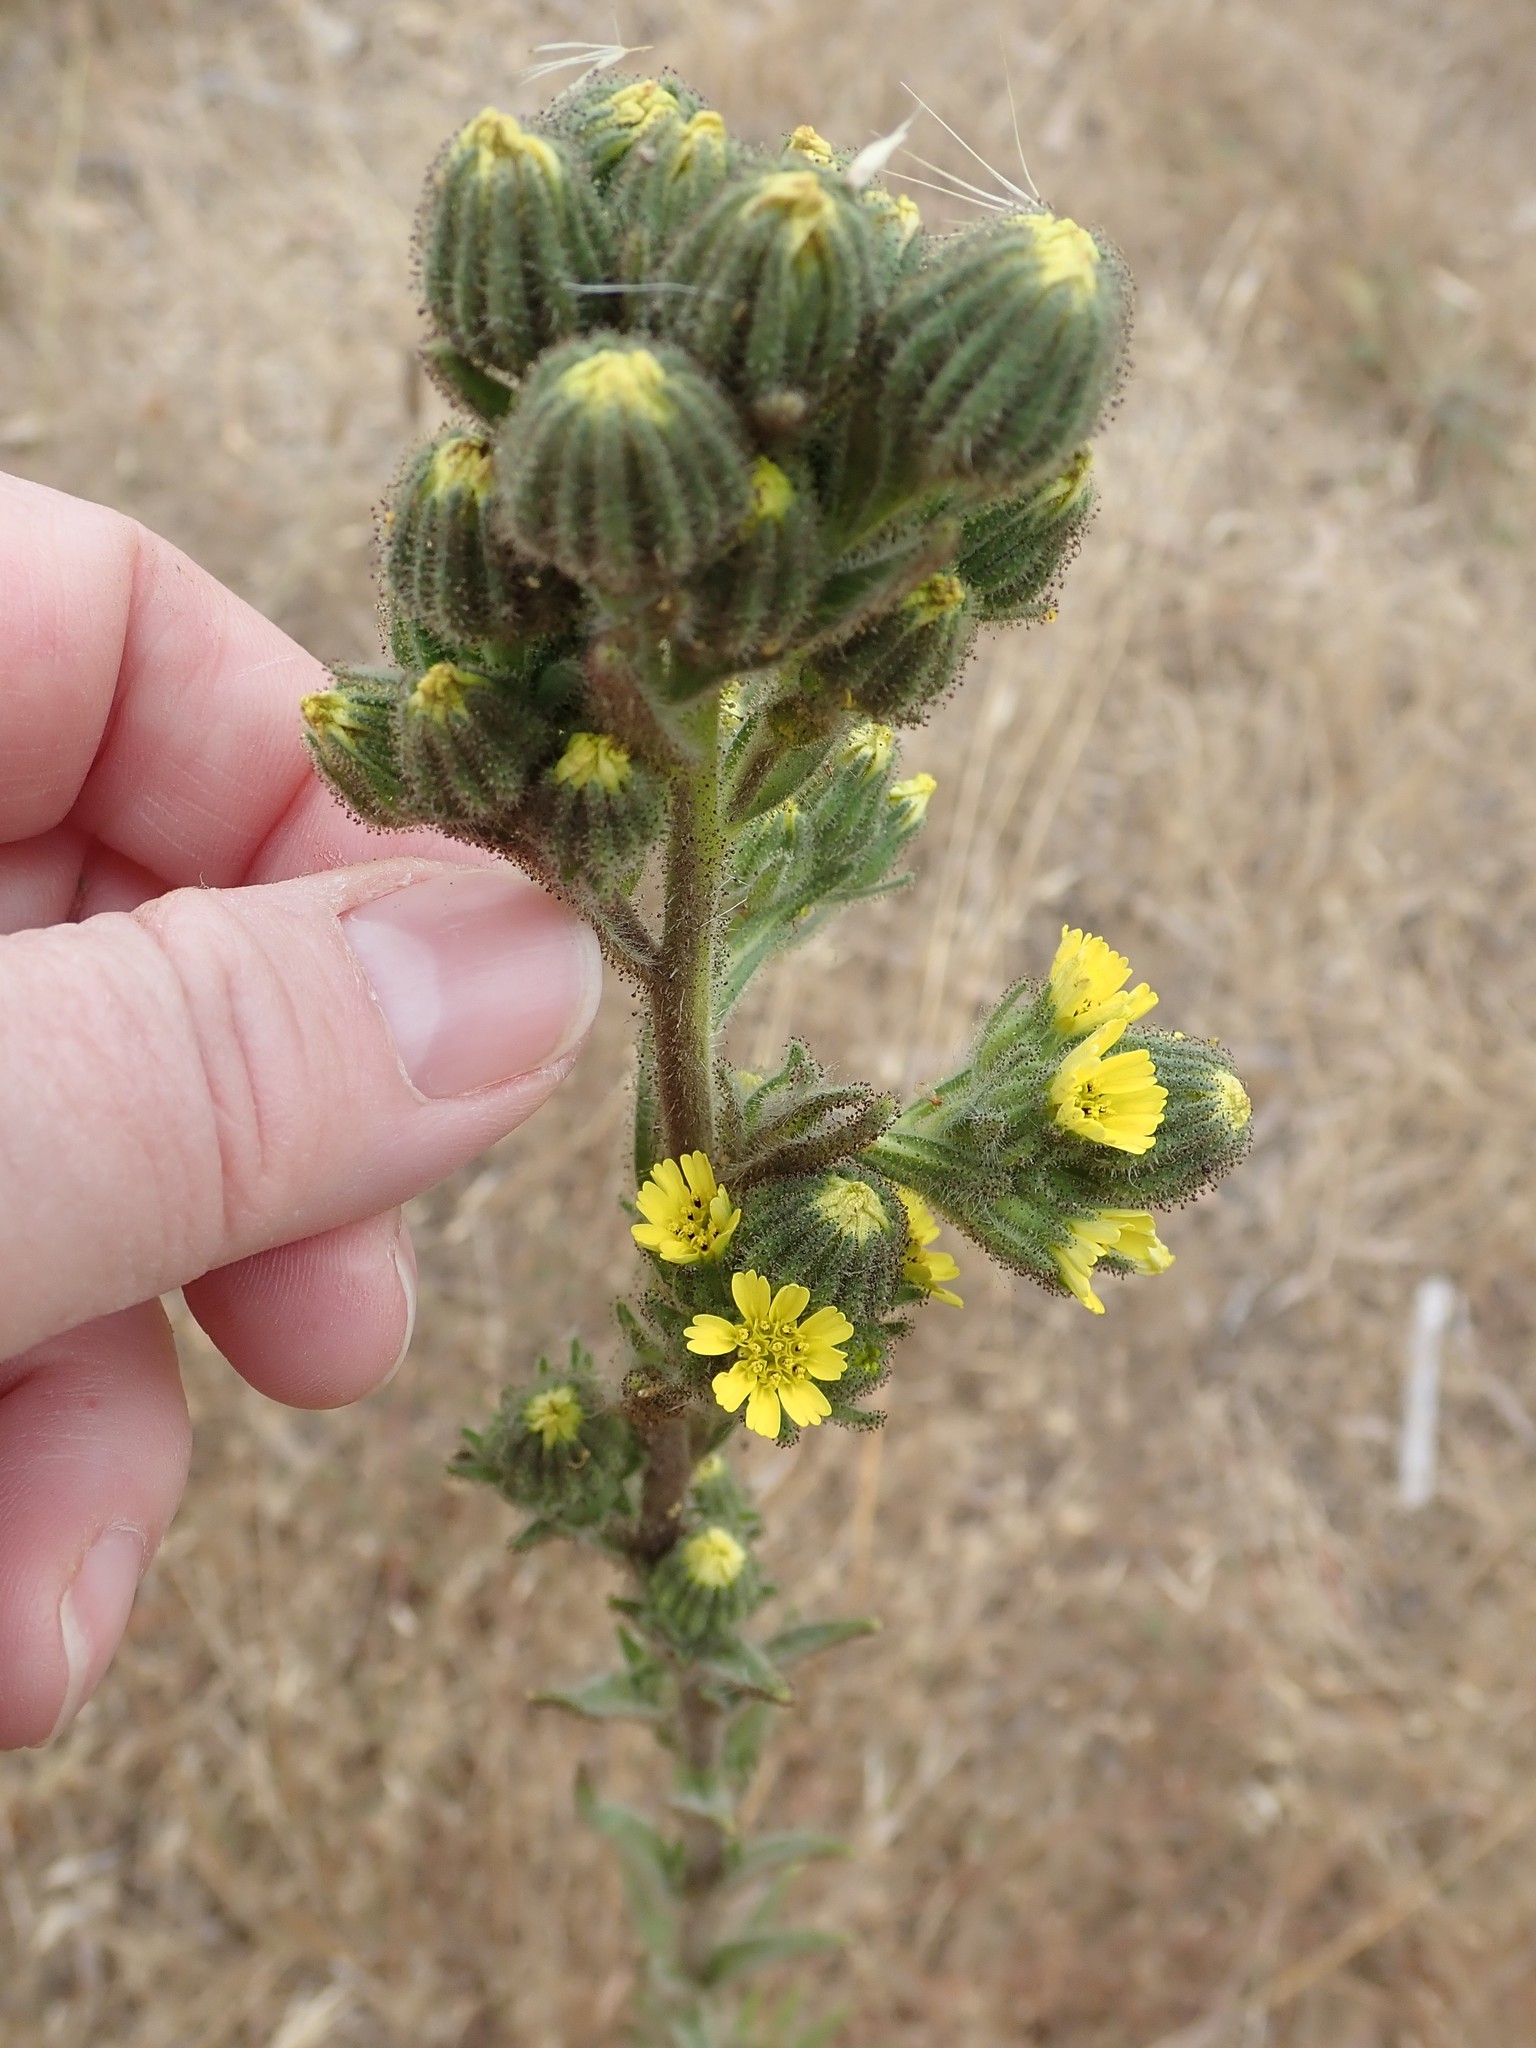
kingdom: Plantae
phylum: Tracheophyta
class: Magnoliopsida
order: Asterales
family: Asteraceae
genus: Madia
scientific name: Madia sativa
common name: Coast tarweed
